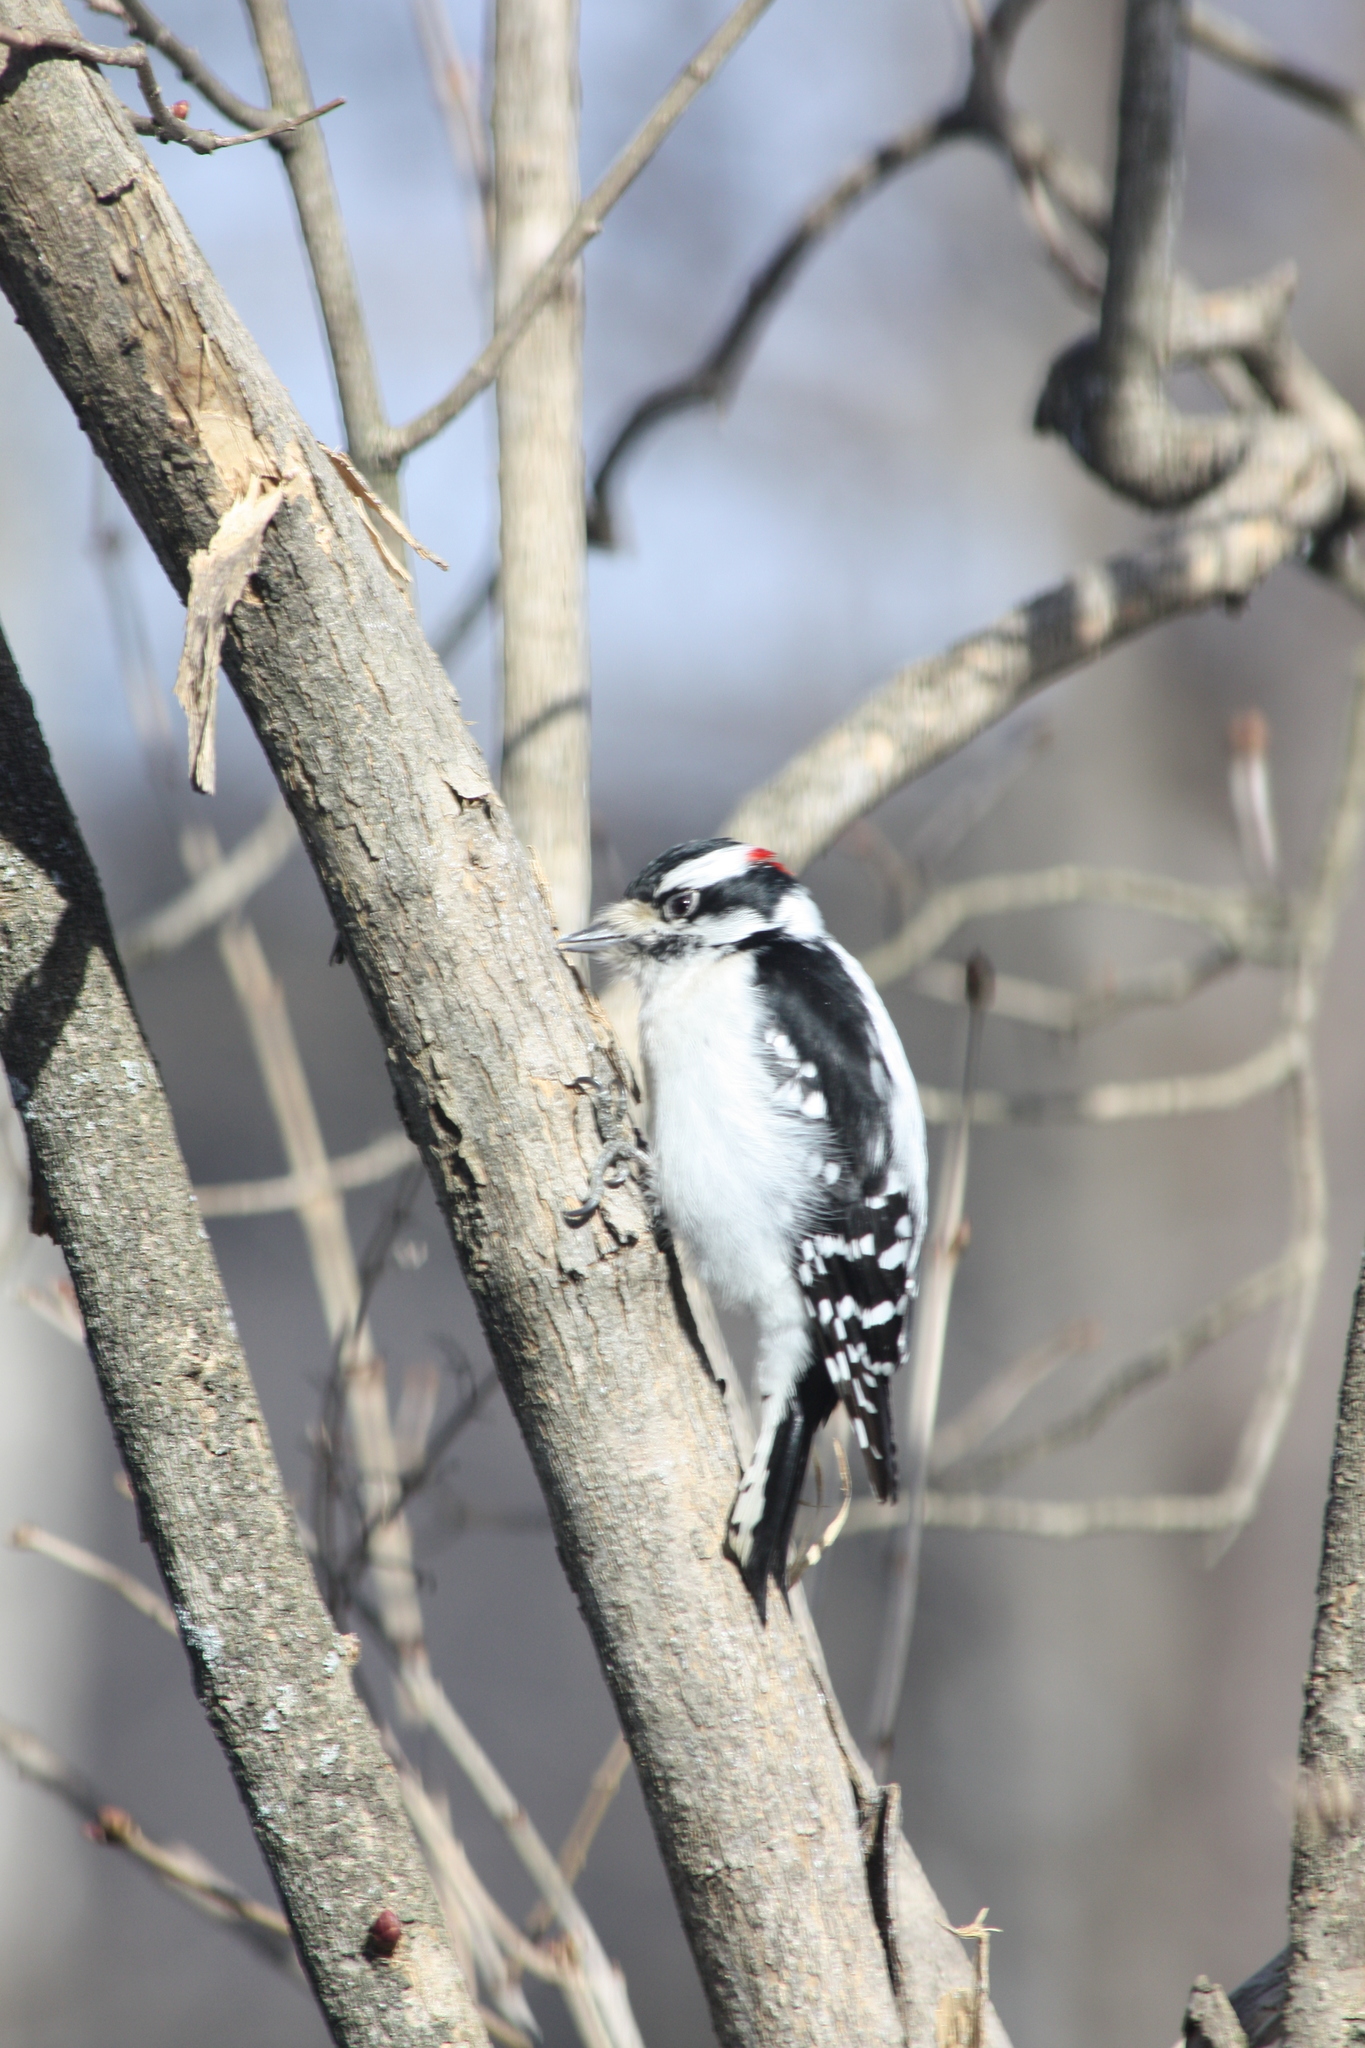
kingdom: Animalia
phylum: Chordata
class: Aves
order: Piciformes
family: Picidae
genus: Dryobates
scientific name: Dryobates pubescens
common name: Downy woodpecker
